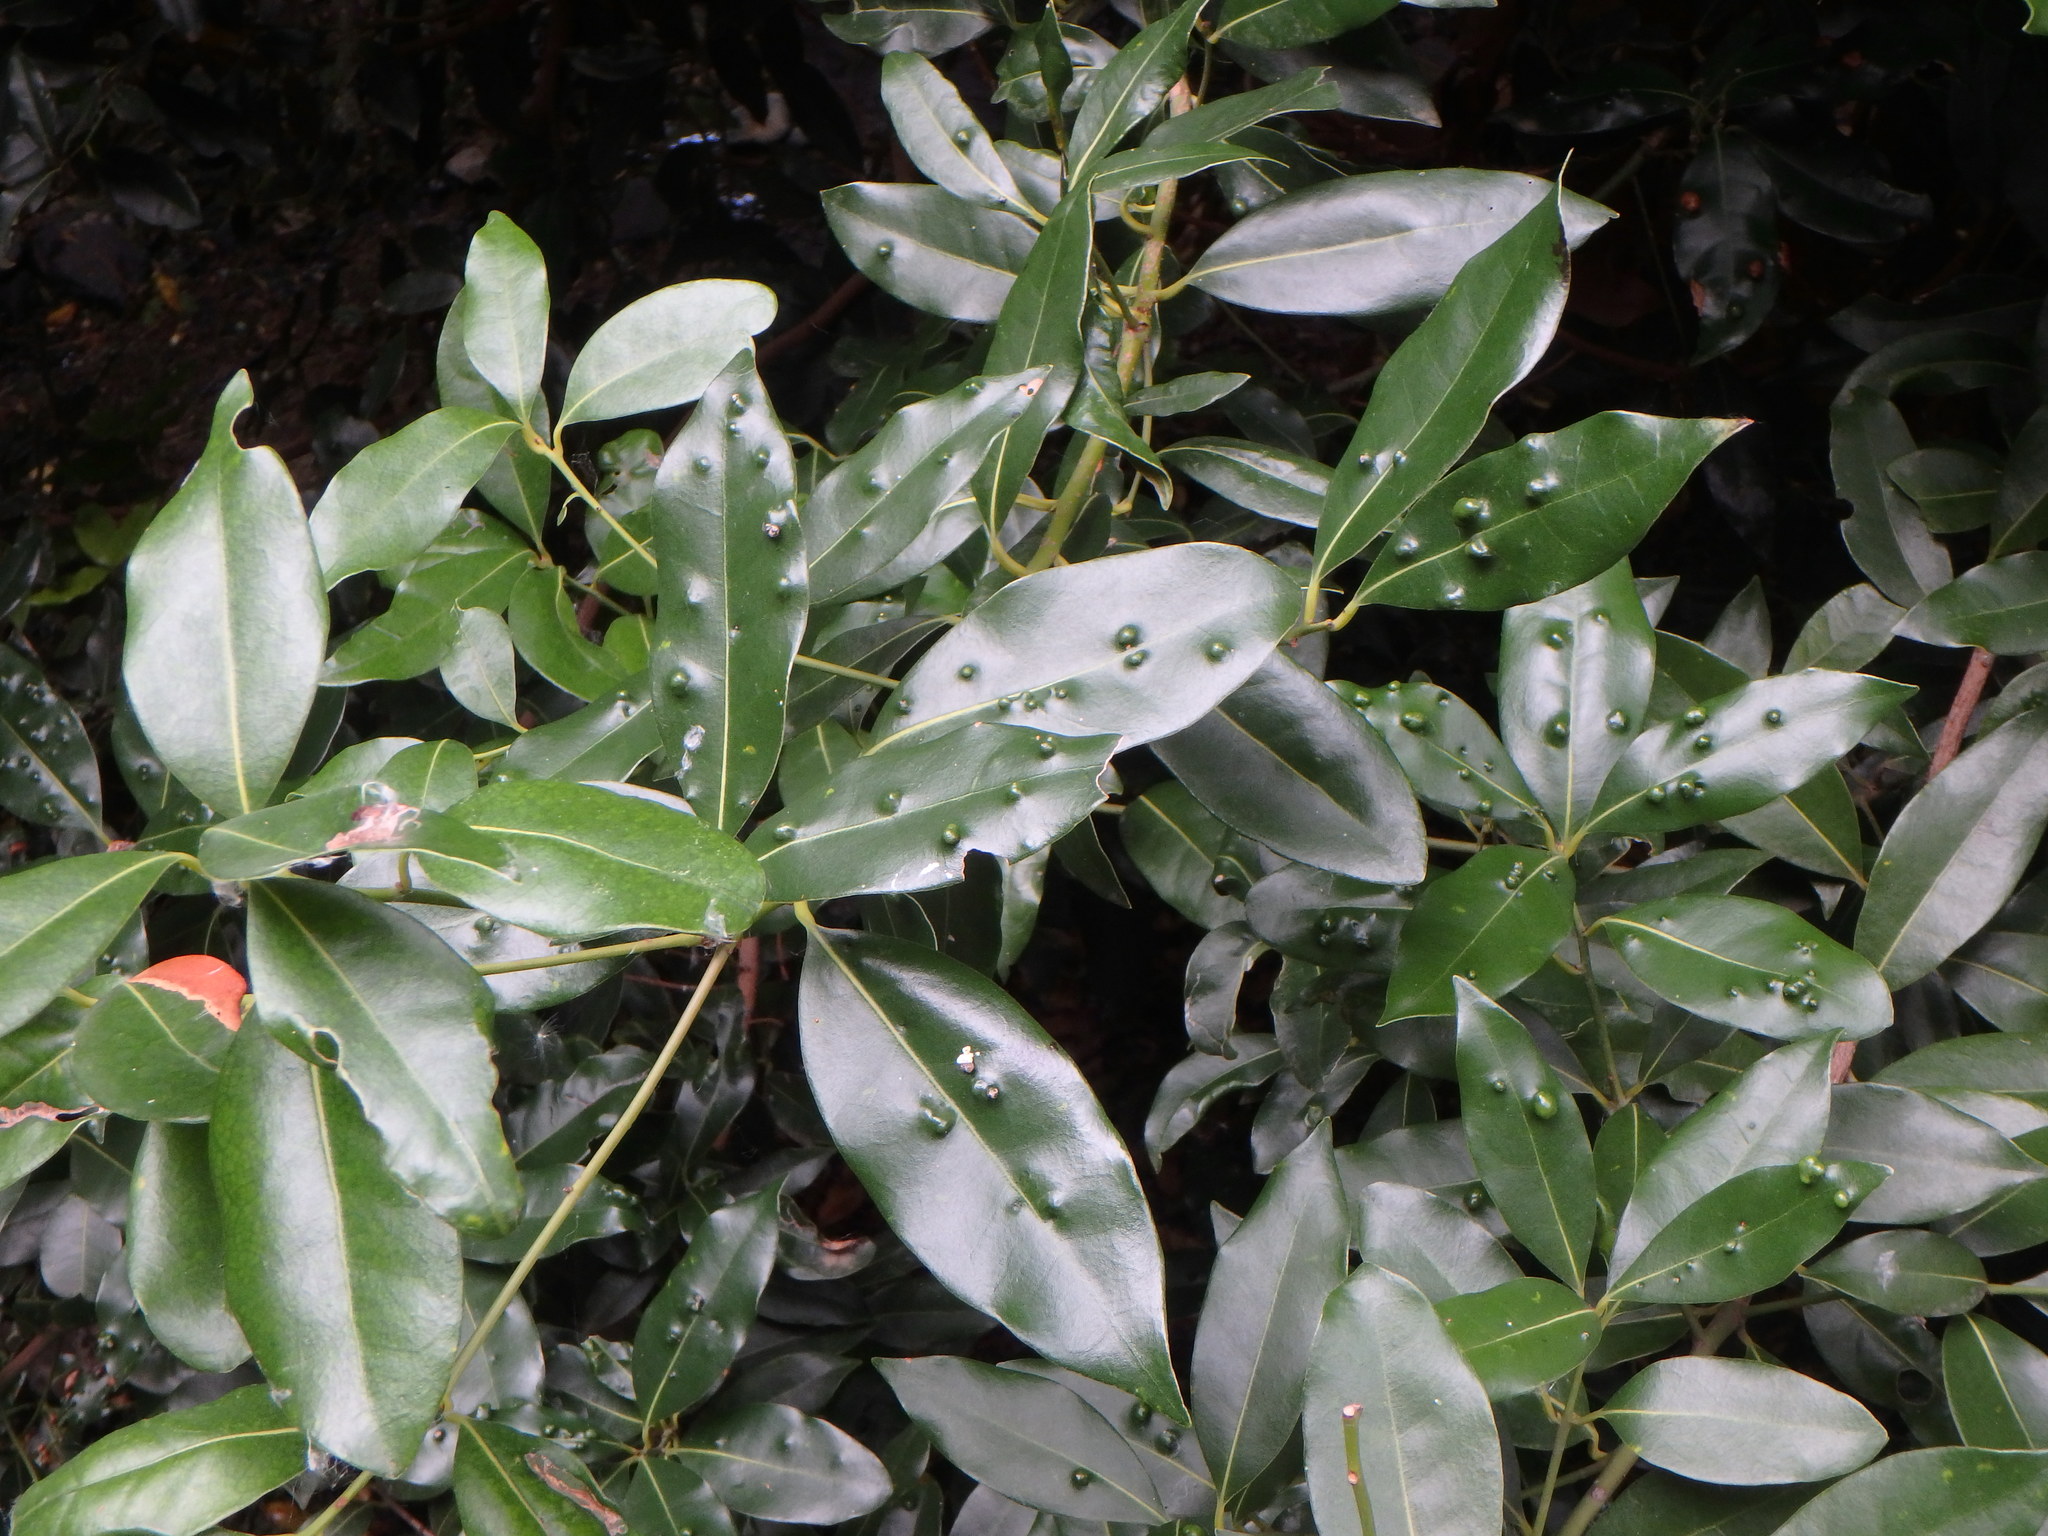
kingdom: Plantae
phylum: Tracheophyta
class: Magnoliopsida
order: Laurales
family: Lauraceae
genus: Apollonias
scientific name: Apollonias barbujana
